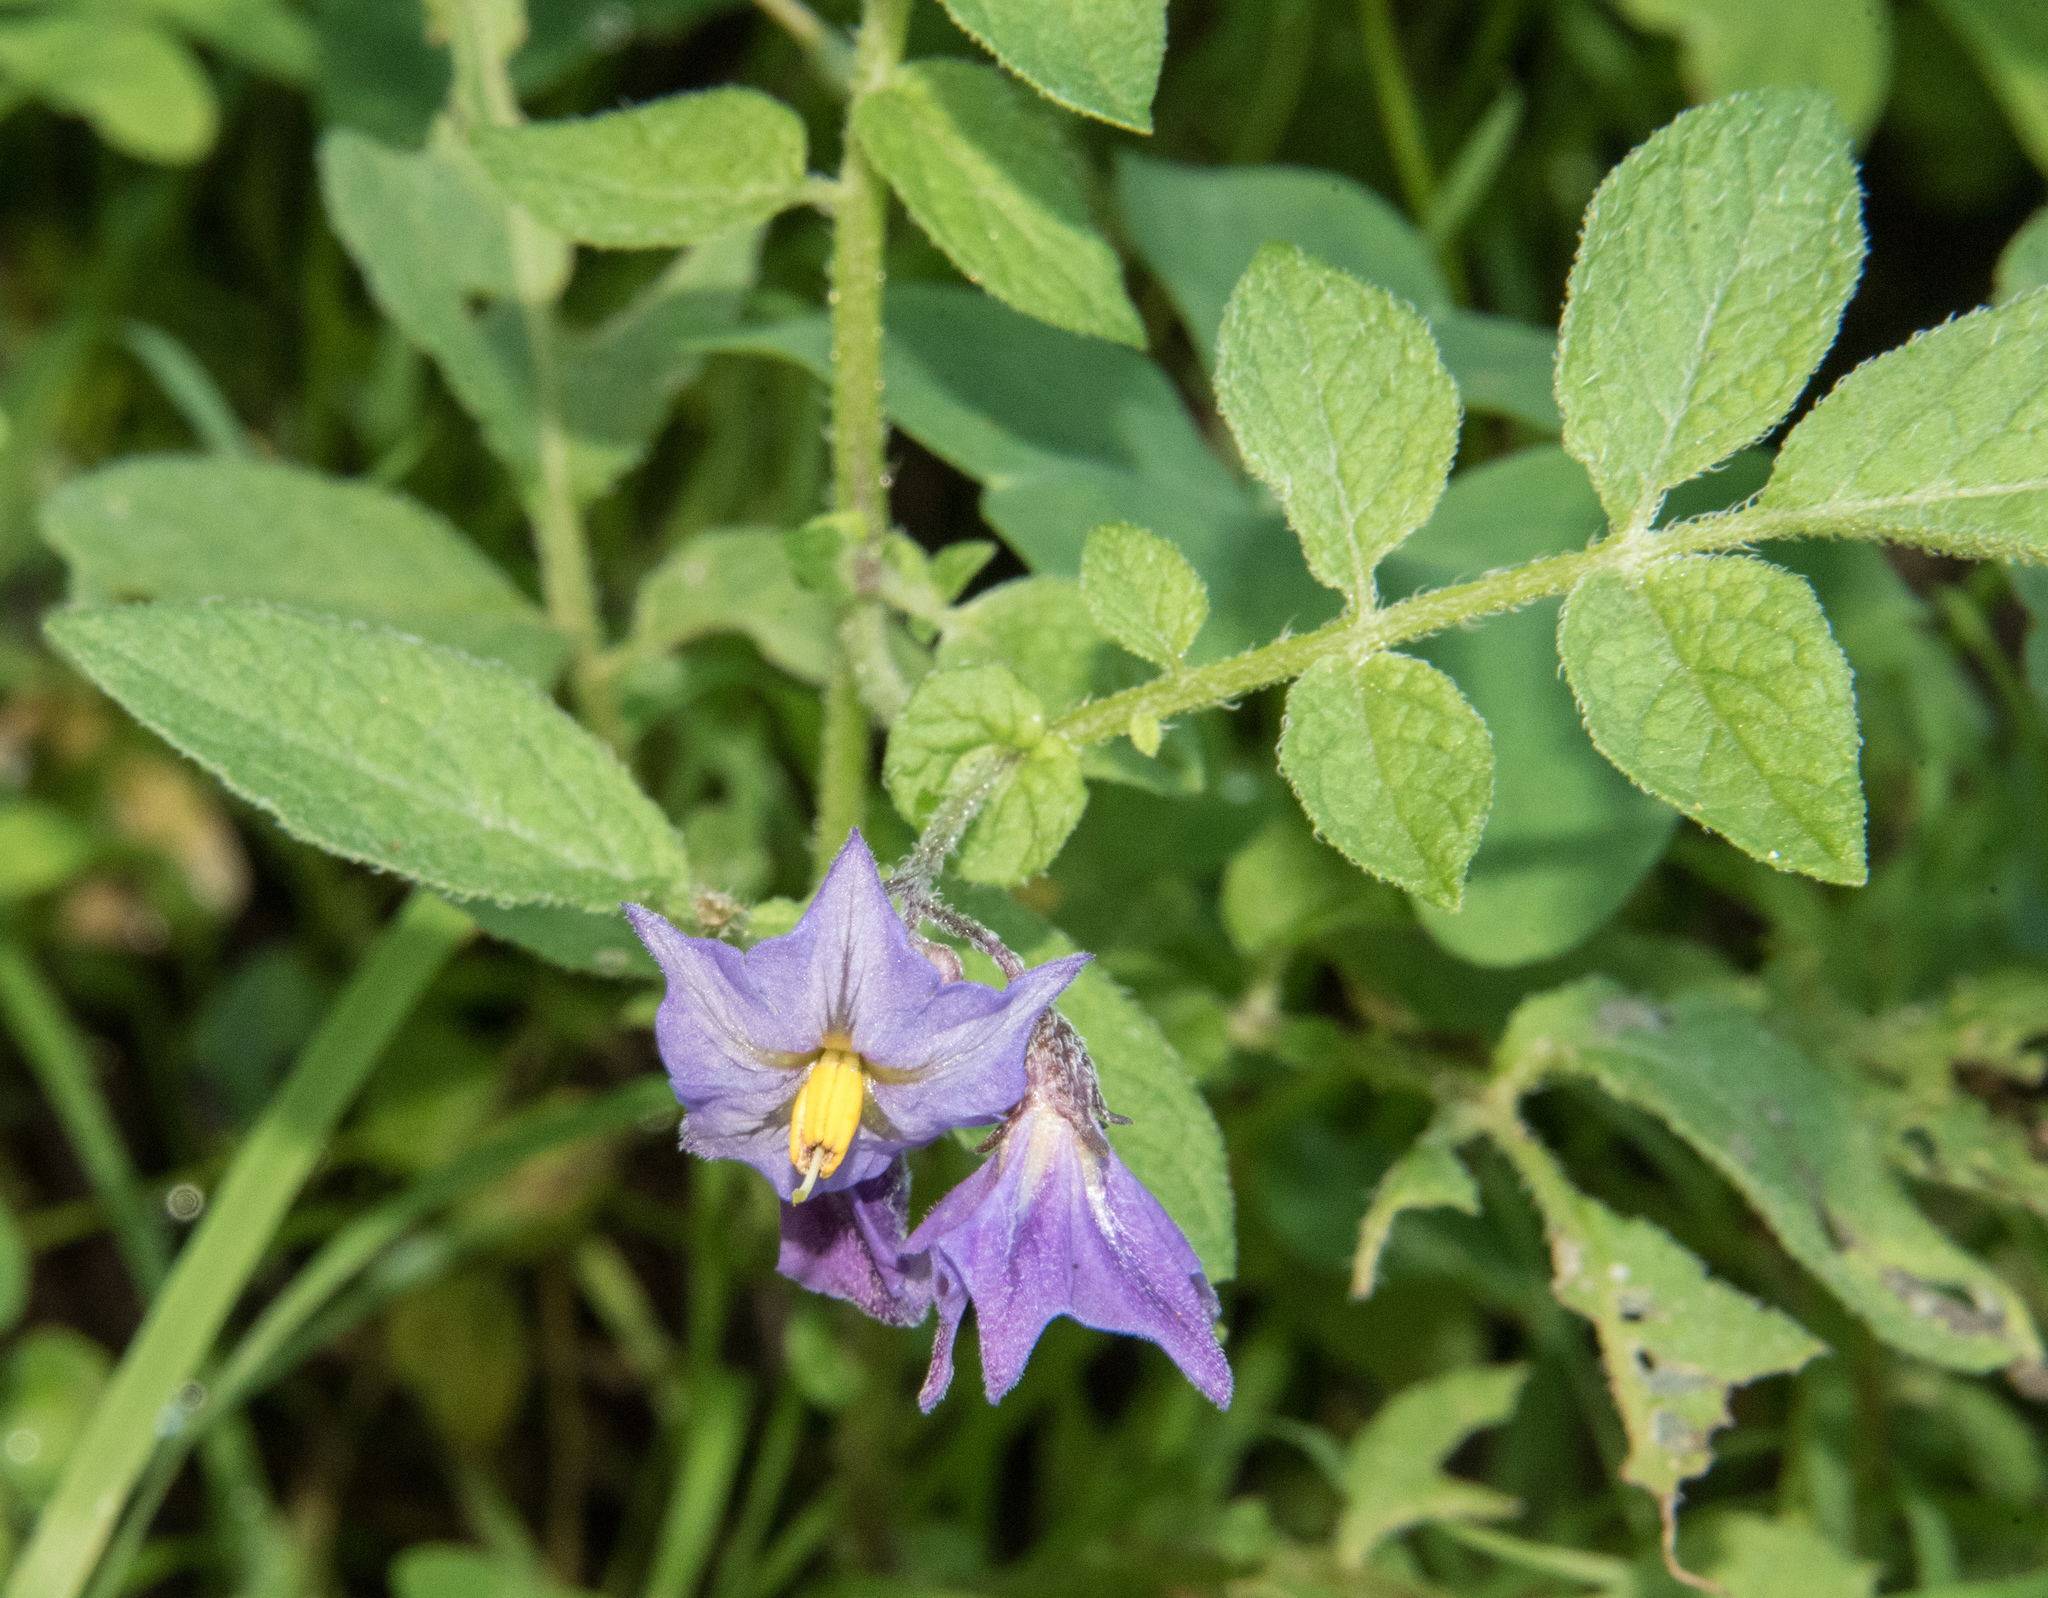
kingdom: Plantae
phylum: Tracheophyta
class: Magnoliopsida
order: Solanales
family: Solanaceae
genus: Solanum
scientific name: Solanum stoloniferum
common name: Fendler's nighshade
